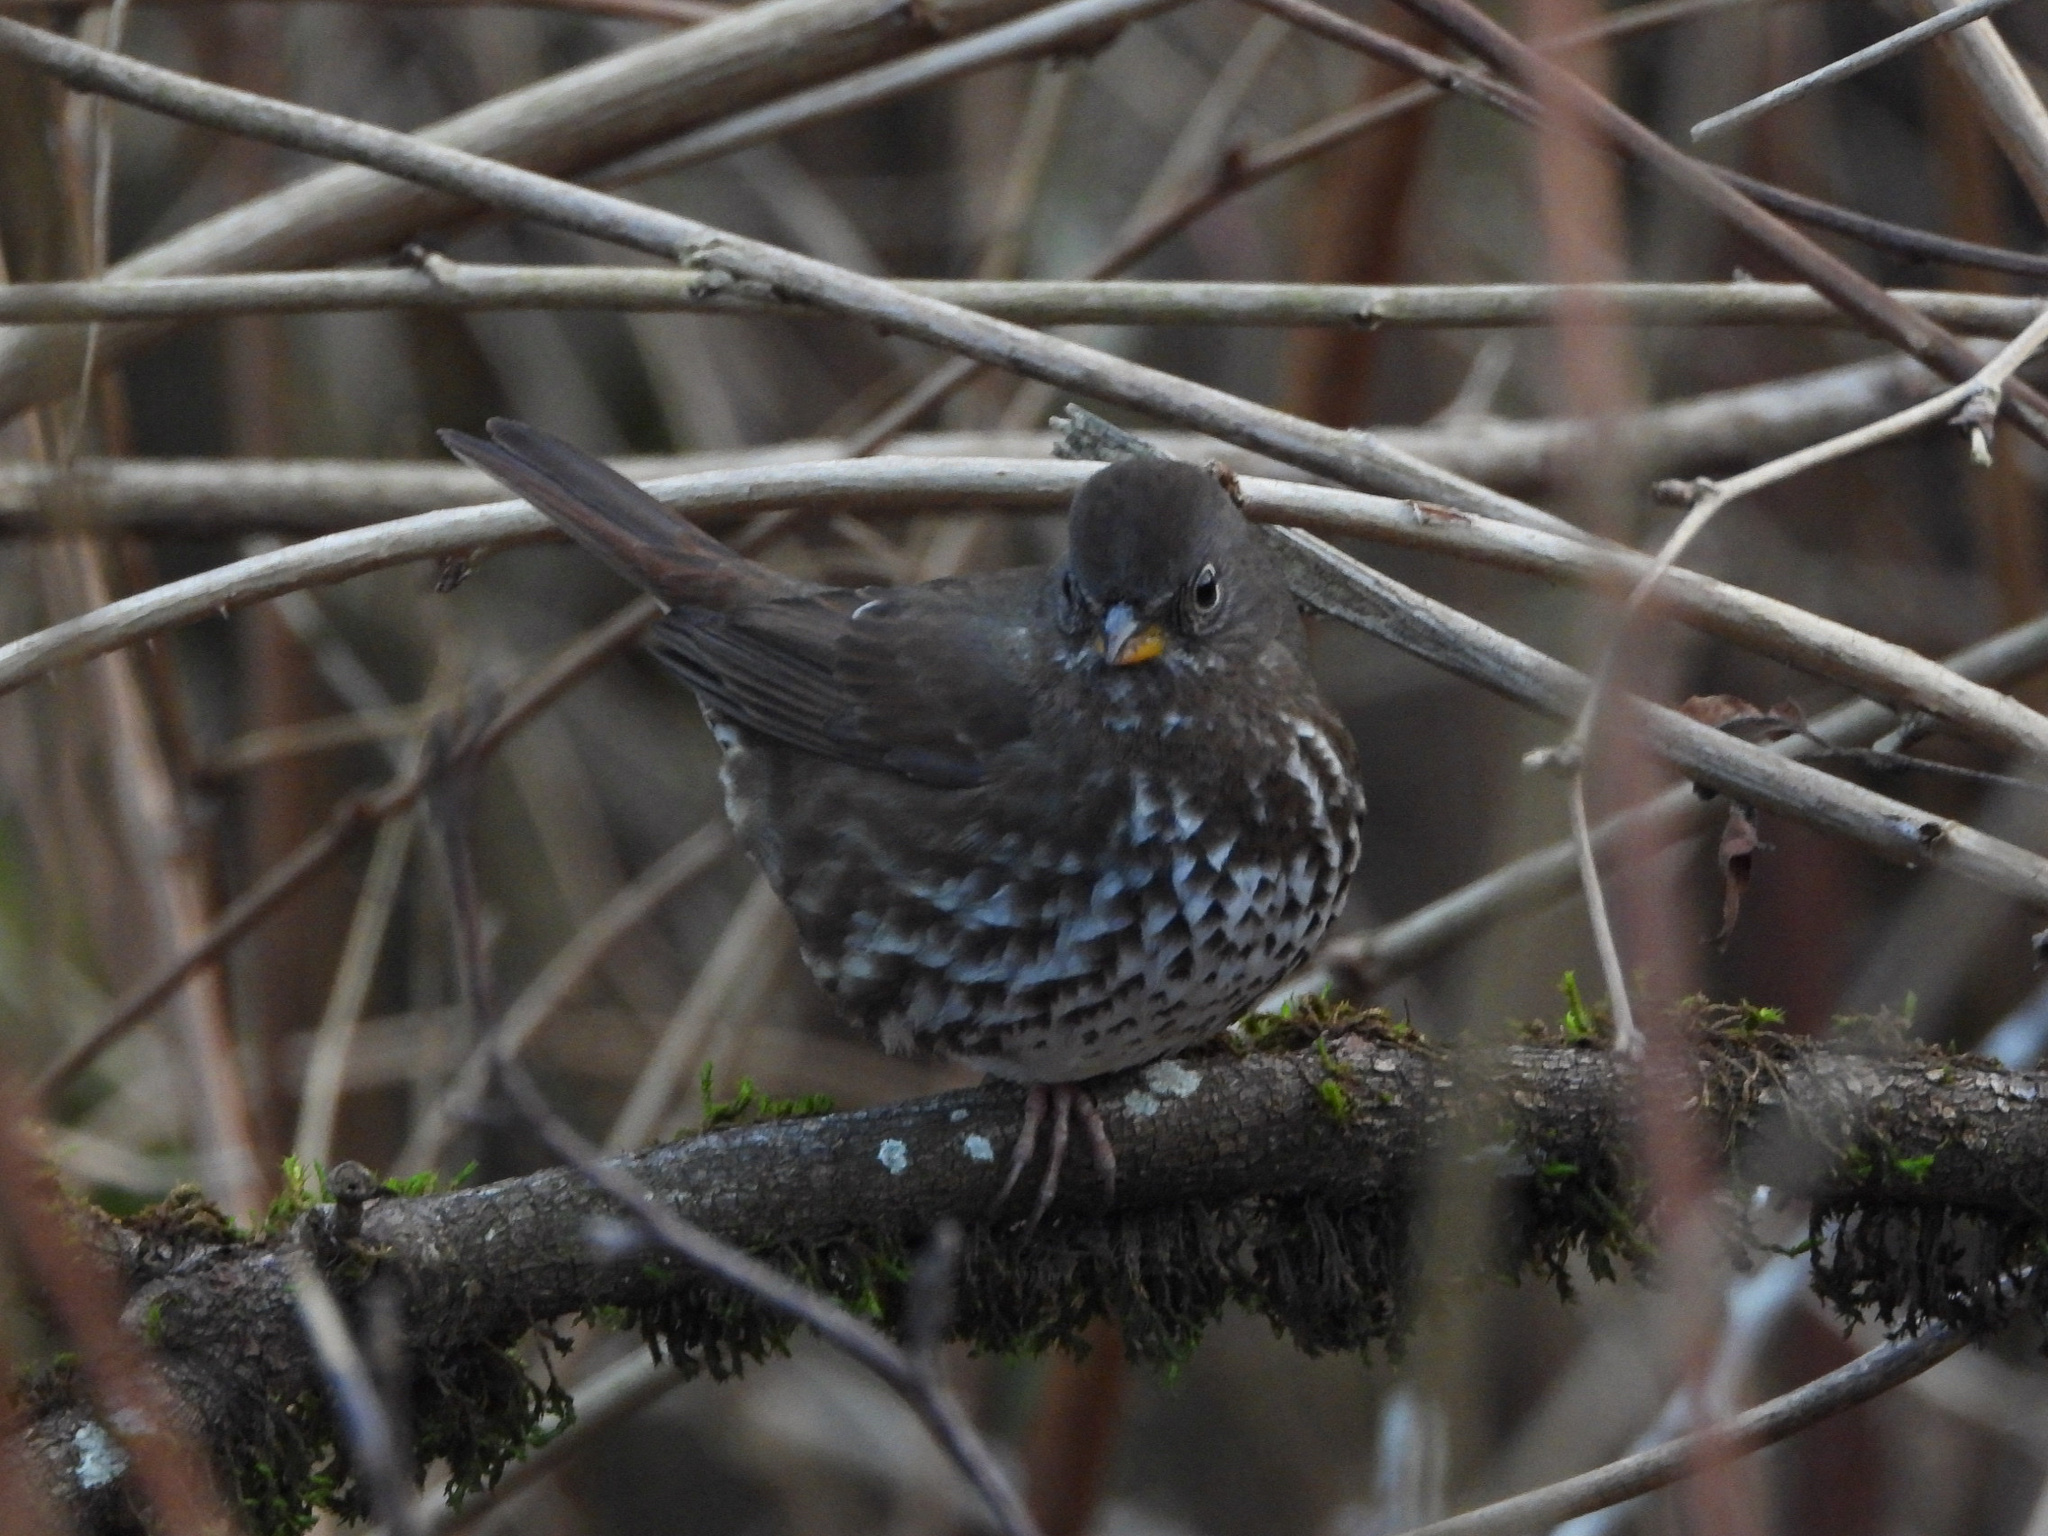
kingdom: Animalia
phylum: Chordata
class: Aves
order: Passeriformes
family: Passerellidae
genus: Passerella
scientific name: Passerella iliaca
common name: Fox sparrow
